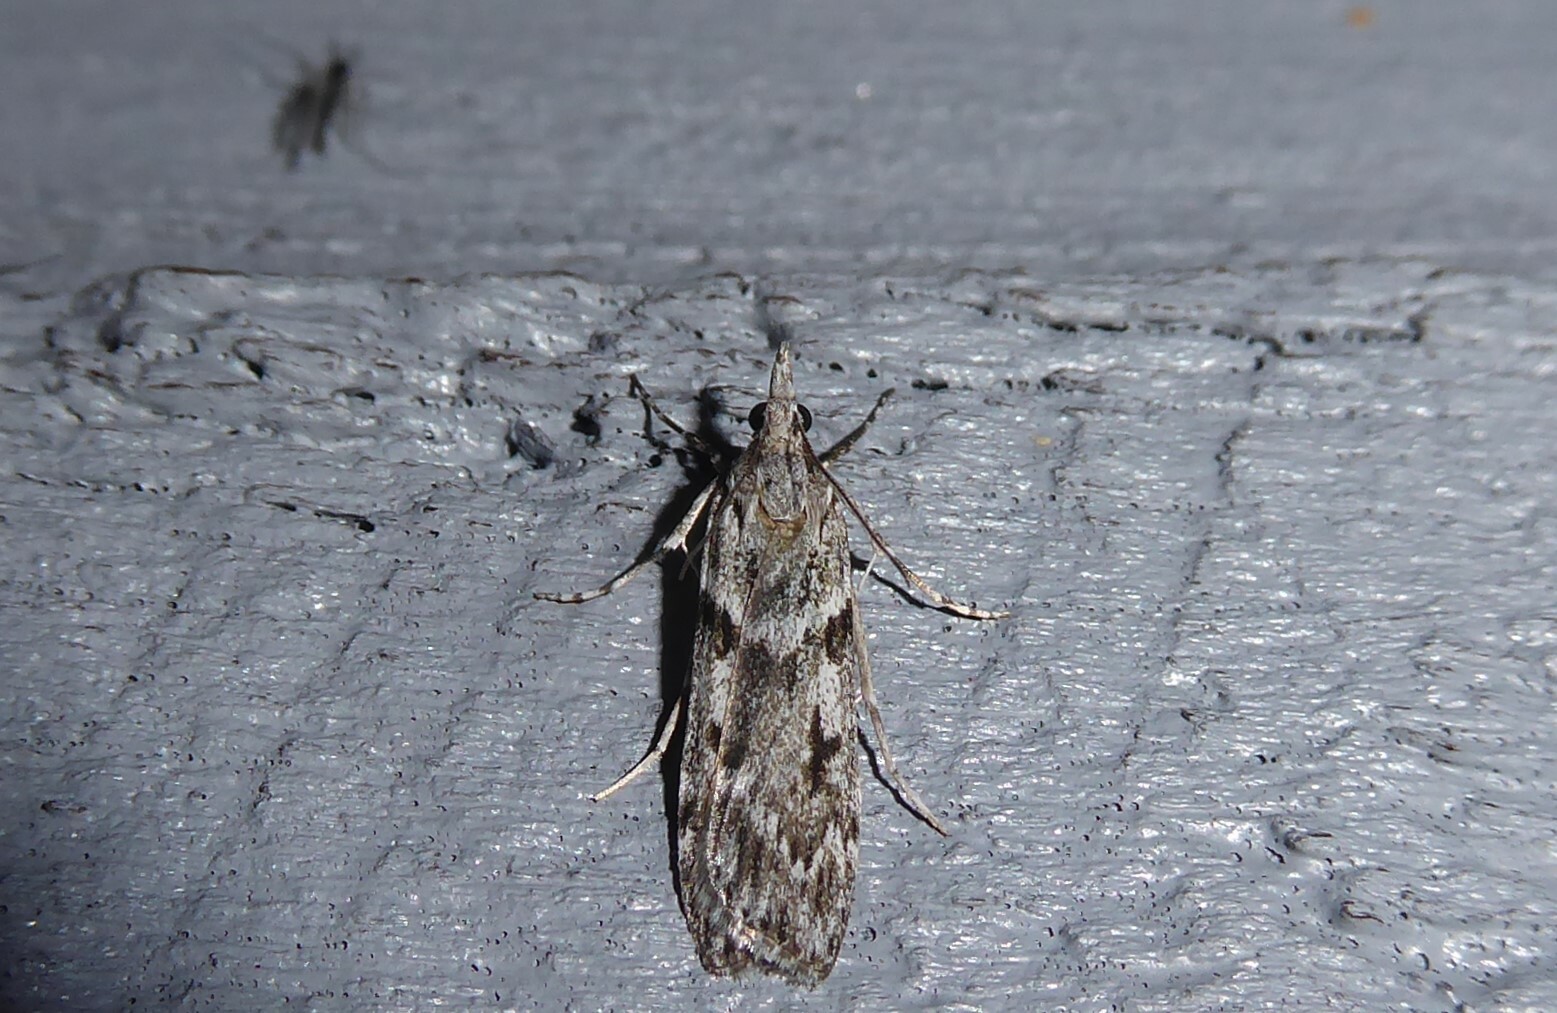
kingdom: Animalia
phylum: Arthropoda
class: Insecta
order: Lepidoptera
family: Crambidae
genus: Scoparia
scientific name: Scoparia halopis
